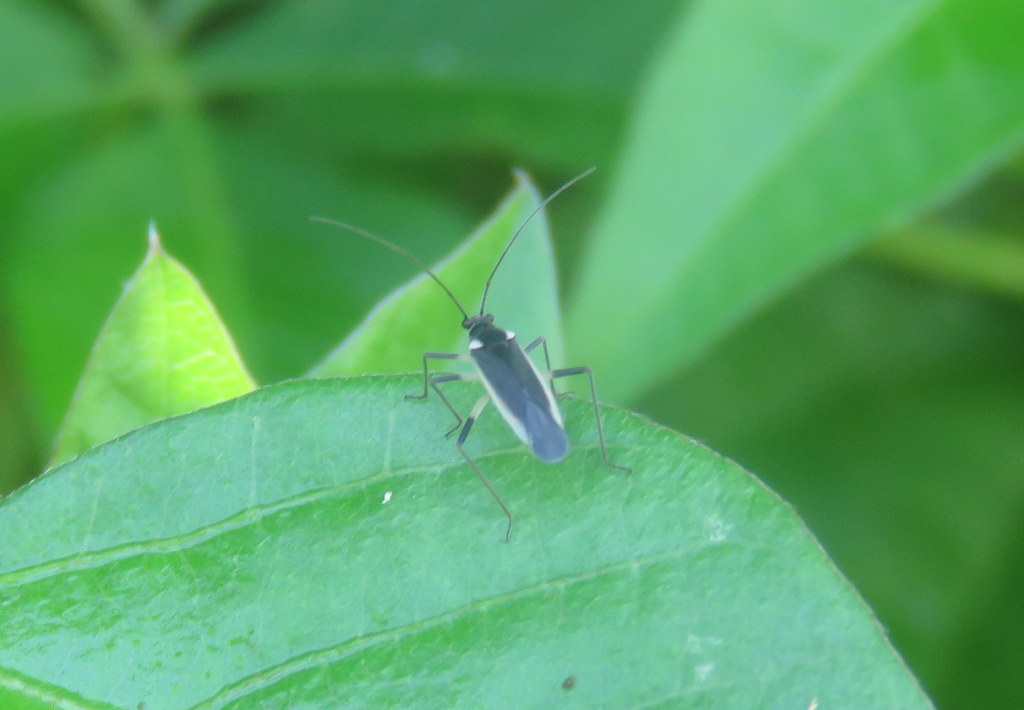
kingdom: Animalia
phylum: Arthropoda
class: Insecta
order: Hemiptera
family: Miridae
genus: Prepops
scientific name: Prepops flavicostus
